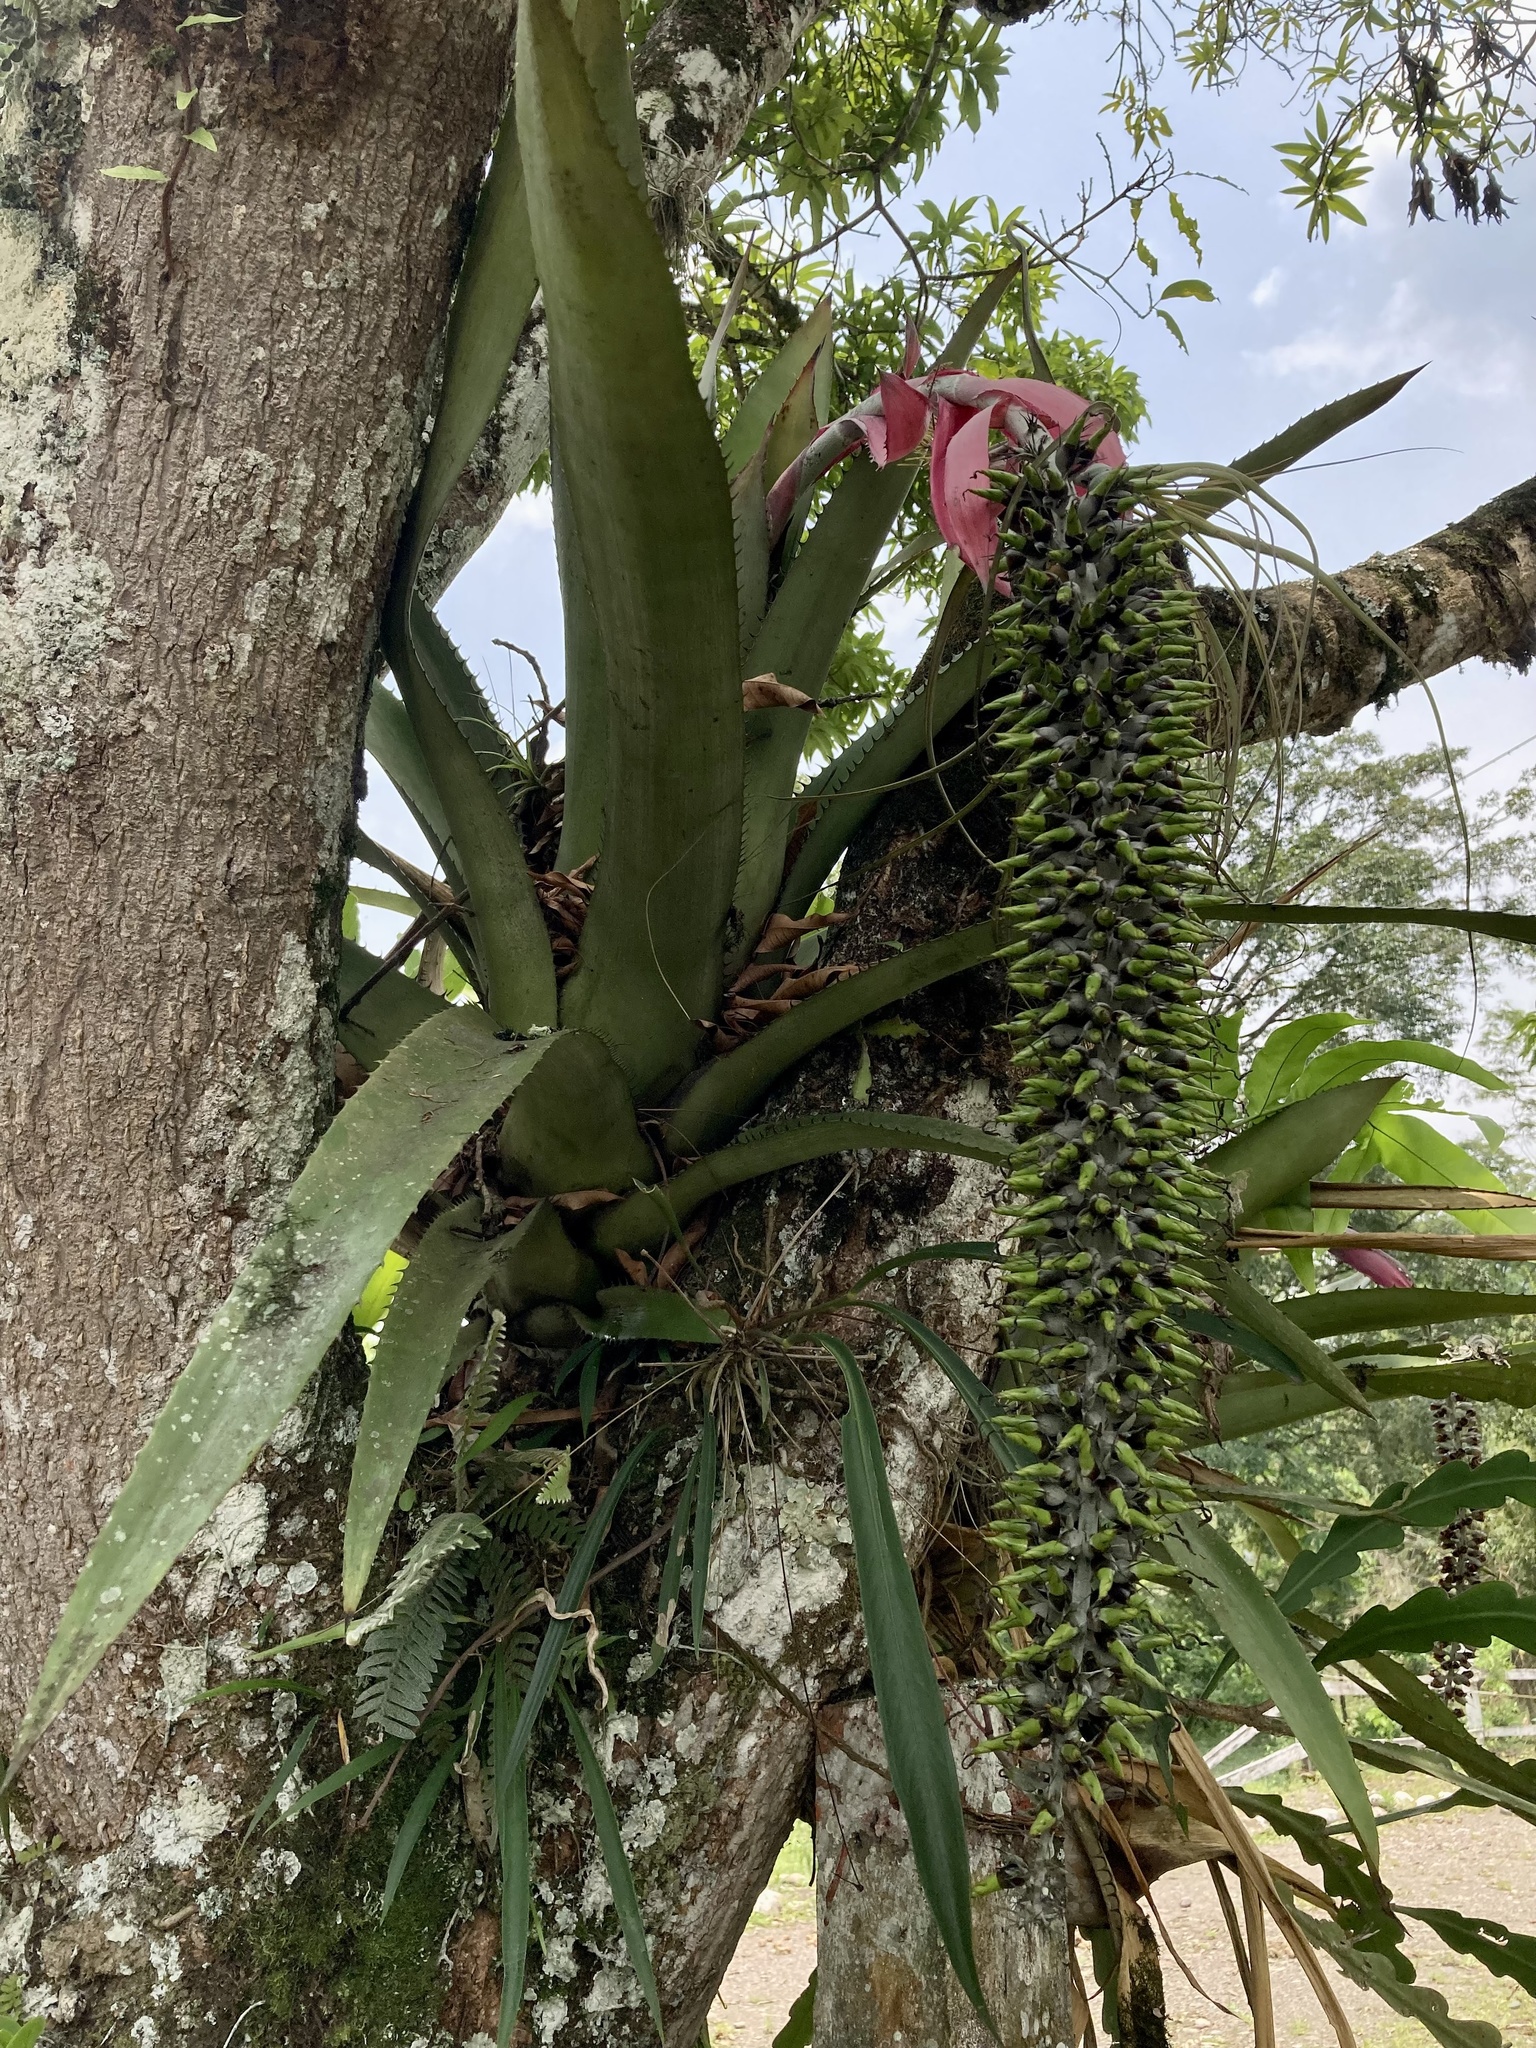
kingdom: Plantae
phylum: Tracheophyta
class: Liliopsida
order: Poales
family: Bromeliaceae
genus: Aechmea
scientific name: Aechmea setigera
